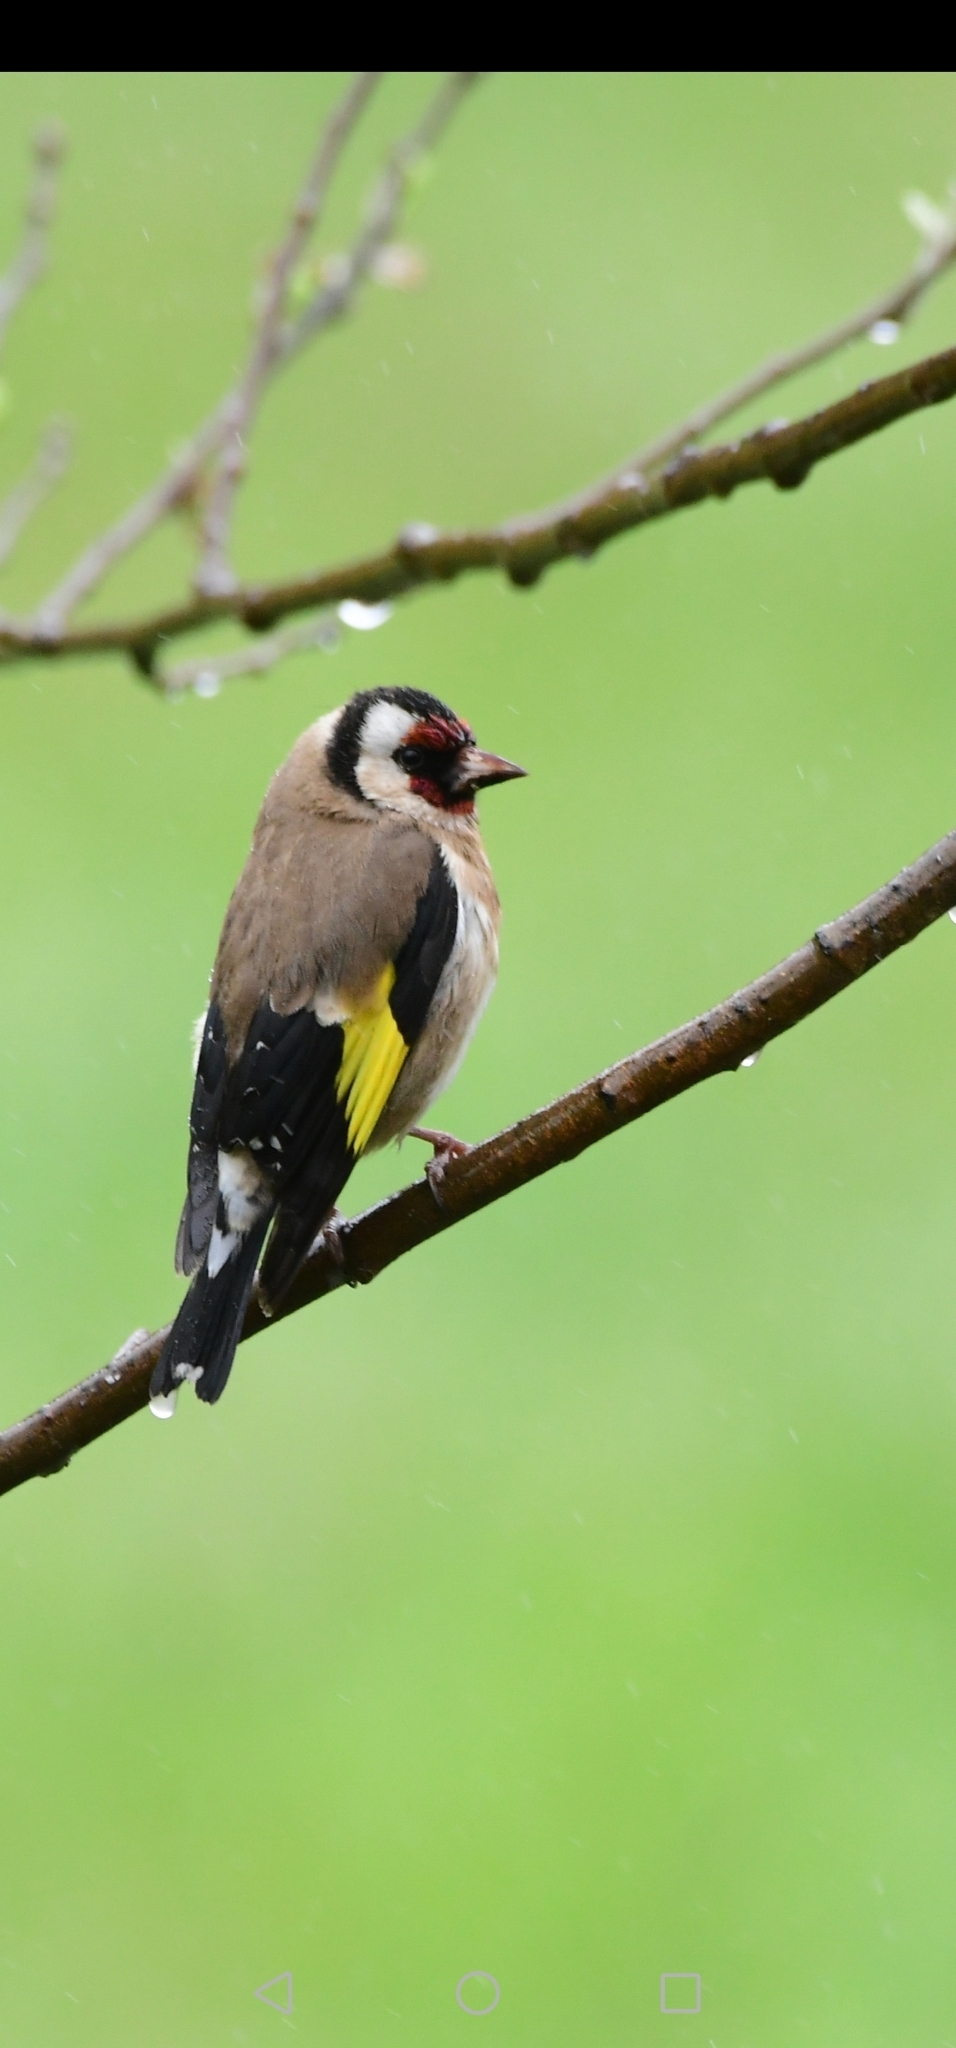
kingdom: Animalia
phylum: Chordata
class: Aves
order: Passeriformes
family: Fringillidae
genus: Carduelis
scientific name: Carduelis carduelis
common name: European goldfinch
